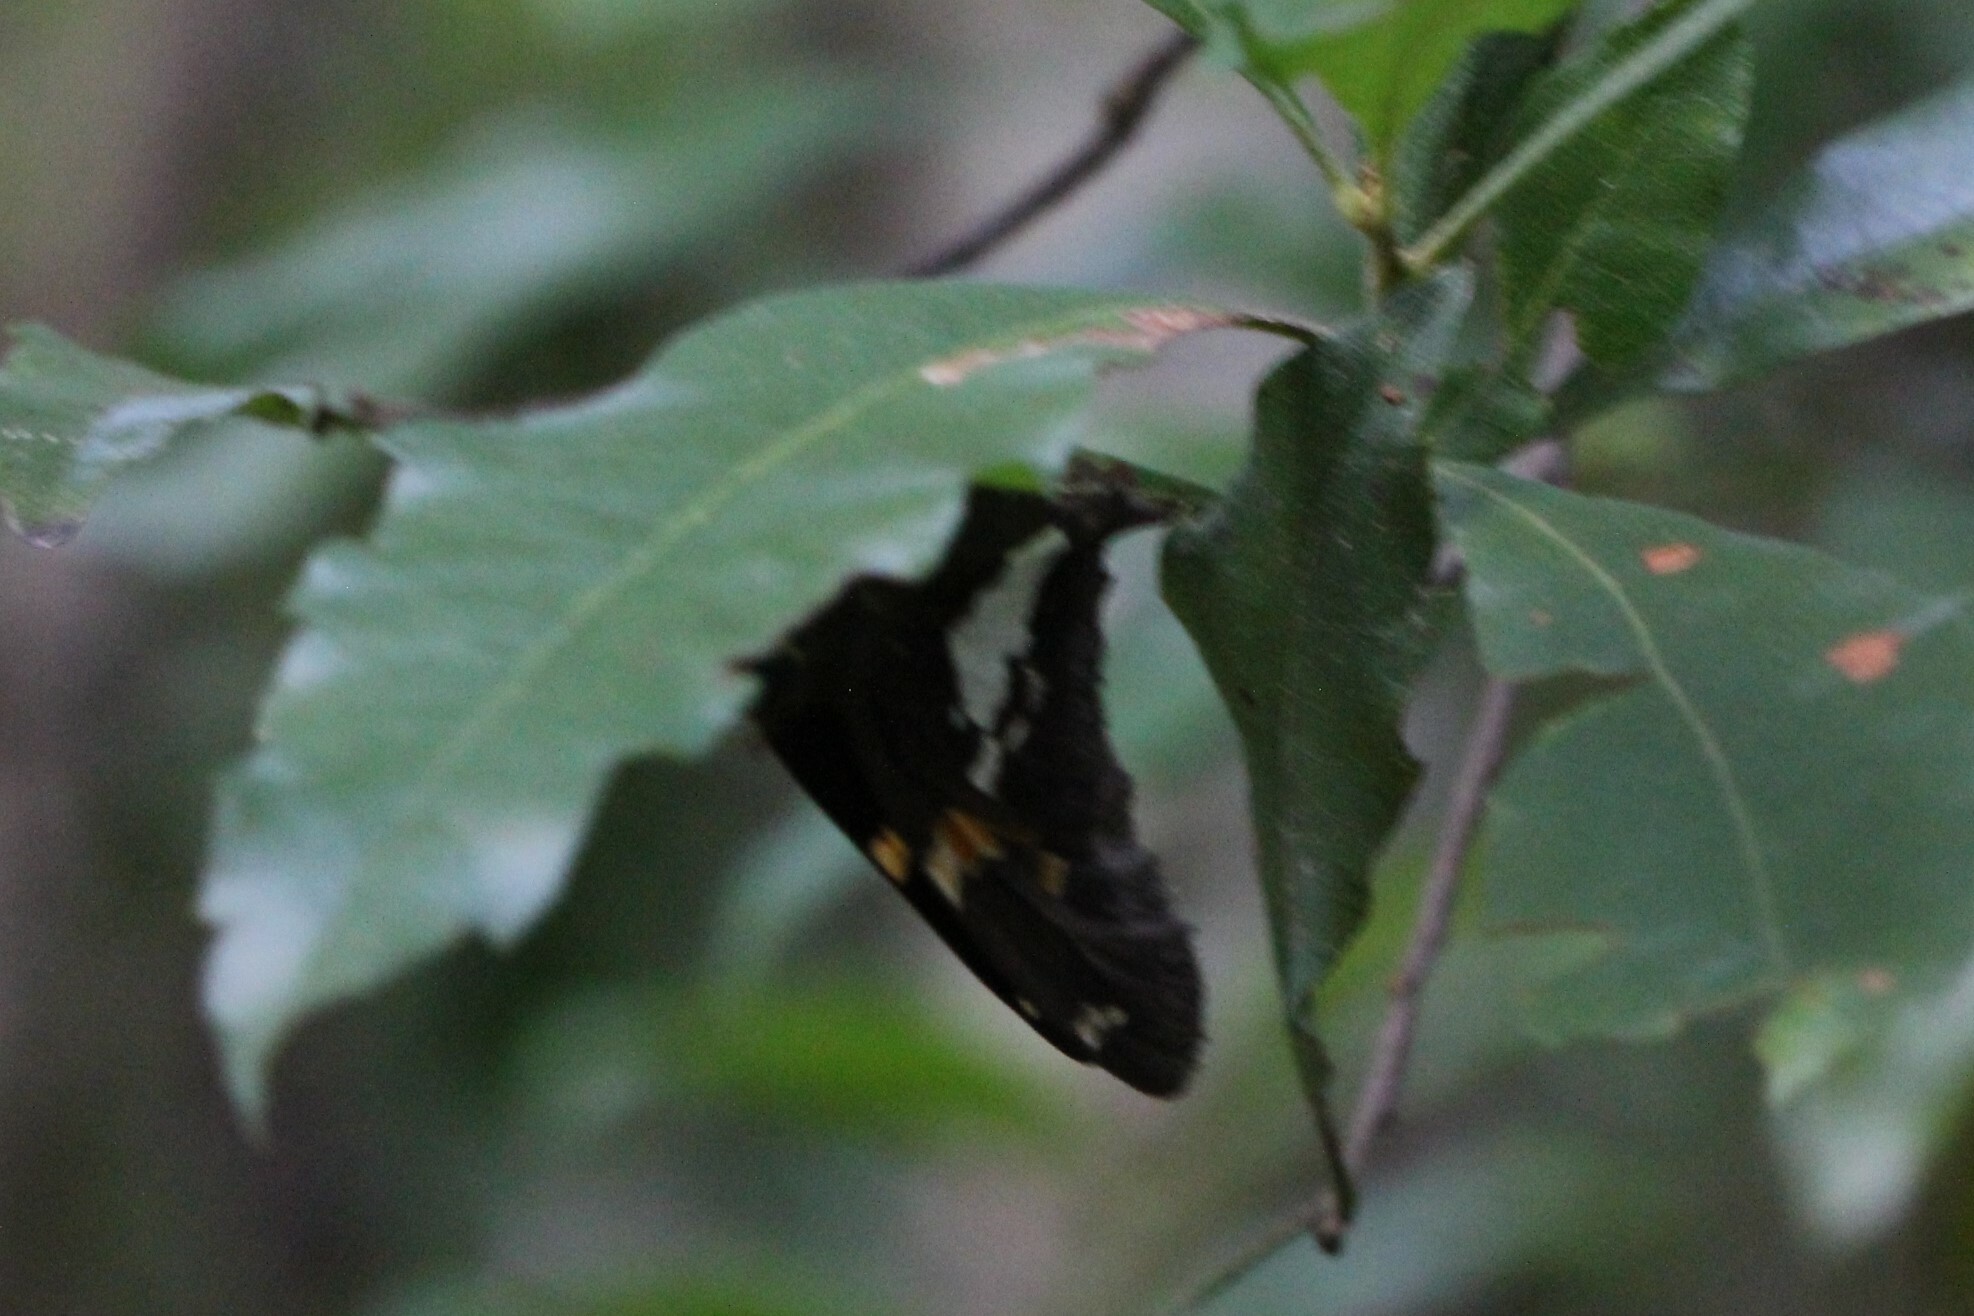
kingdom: Animalia
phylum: Arthropoda
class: Insecta
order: Lepidoptera
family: Hesperiidae
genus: Epargyreus
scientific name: Epargyreus clarus
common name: Silver-spotted skipper
